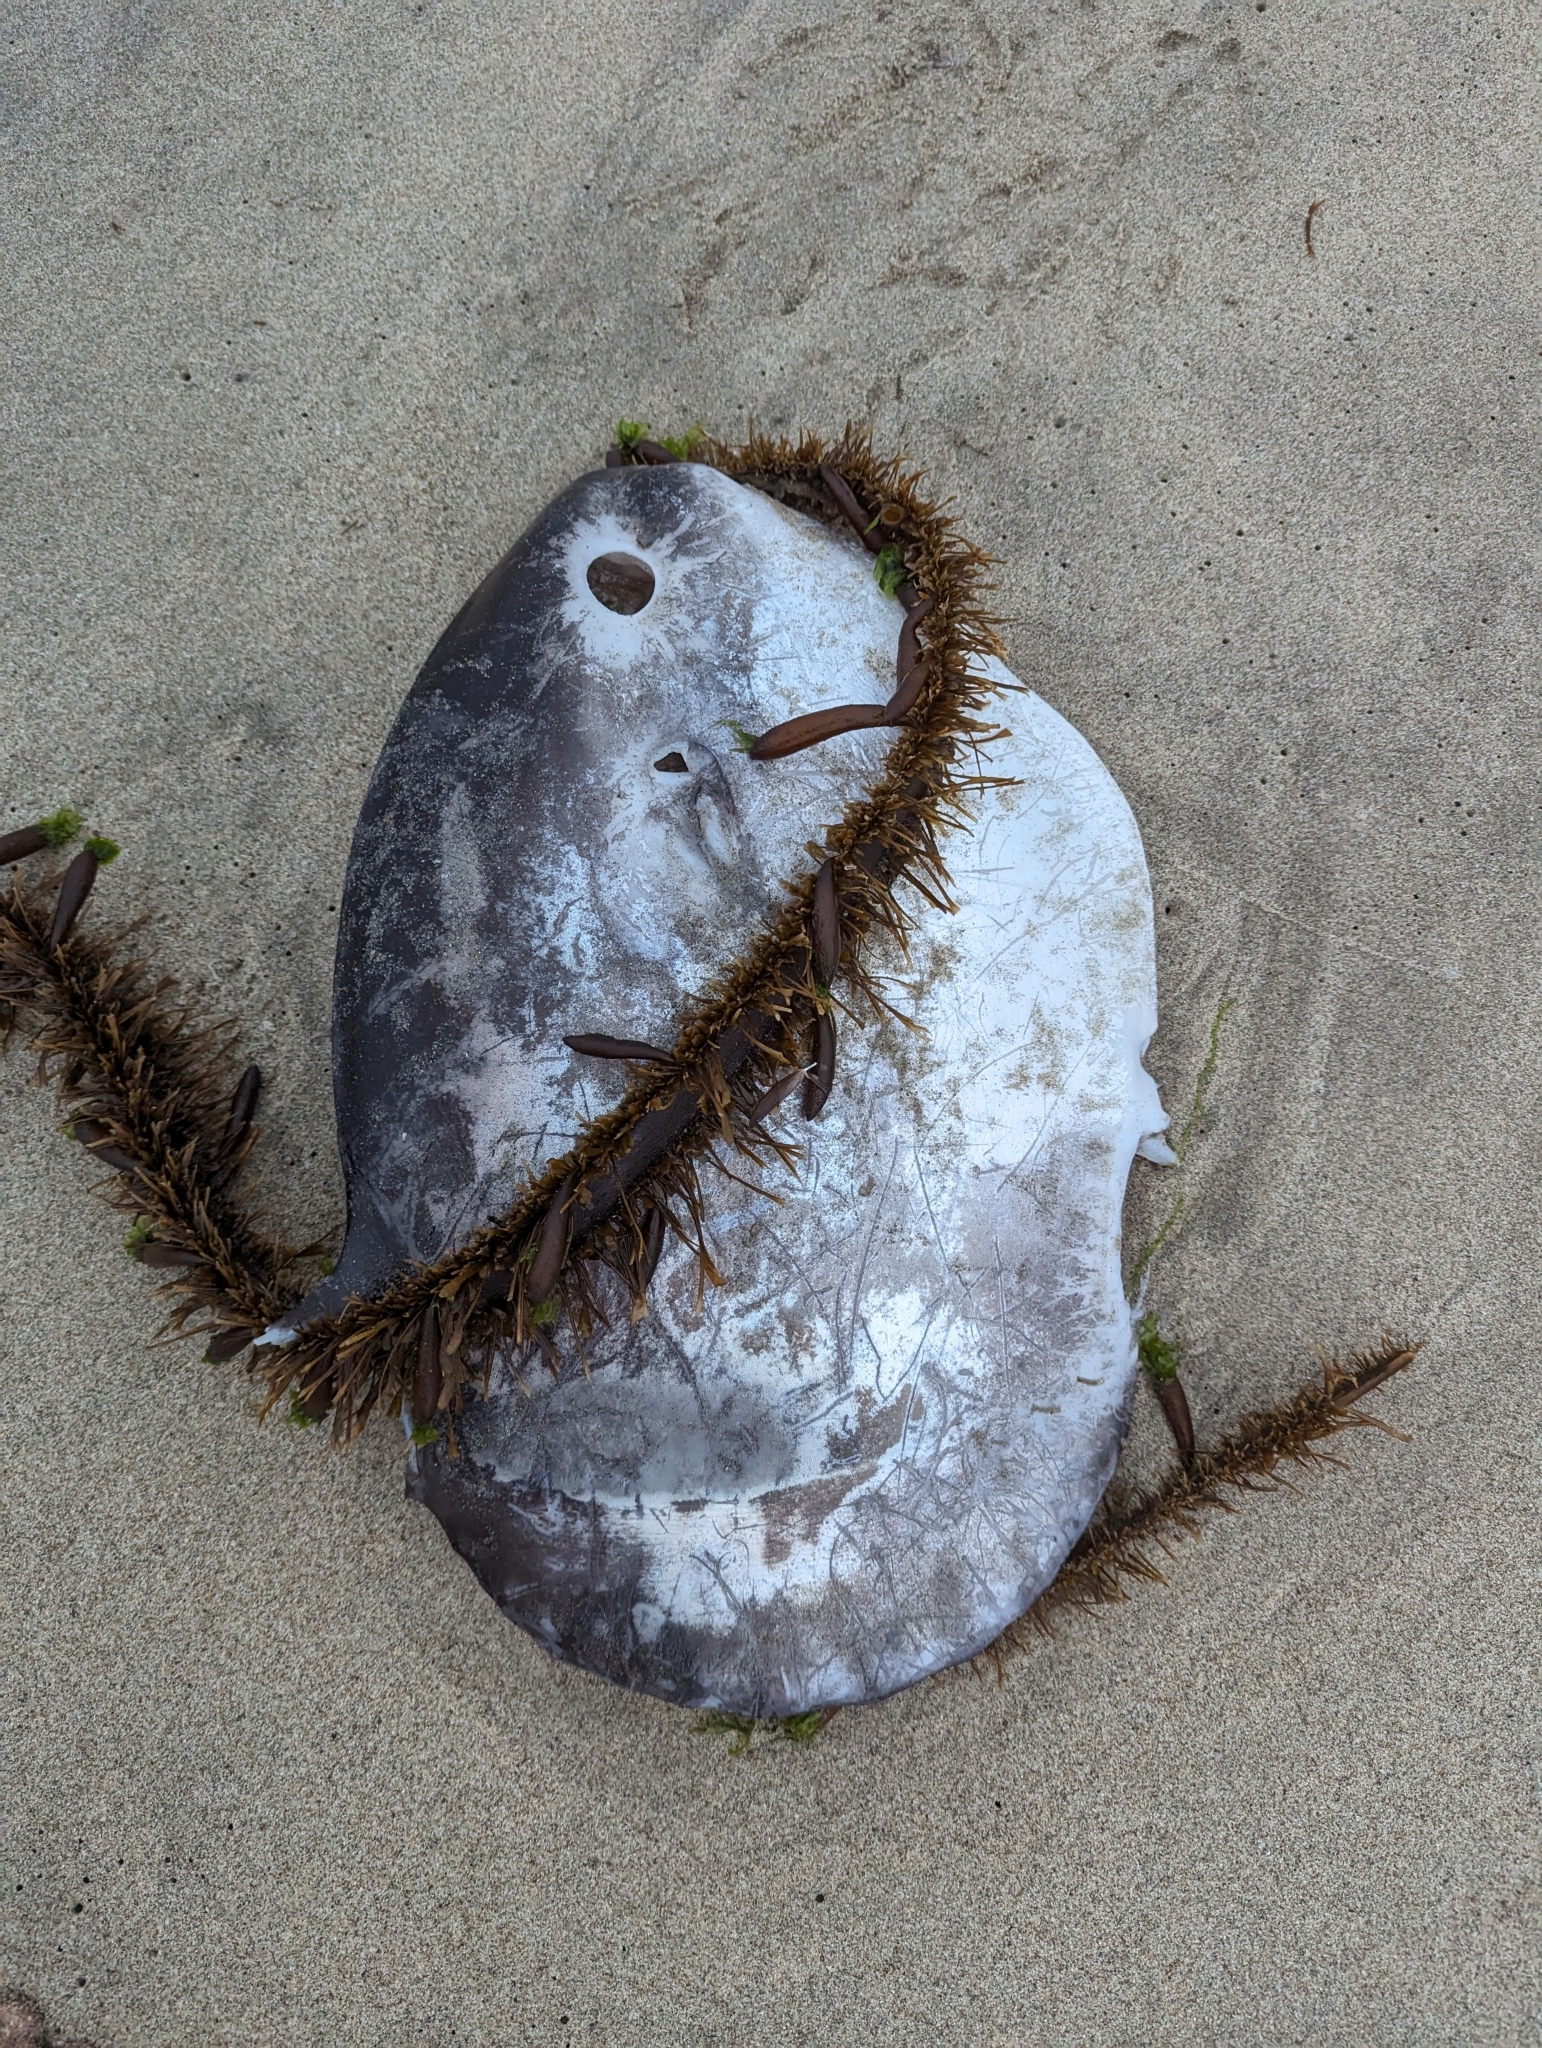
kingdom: Animalia
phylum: Chordata
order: Tetraodontiformes
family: Molidae
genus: Mola
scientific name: Mola mola
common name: Ocean sunfish
